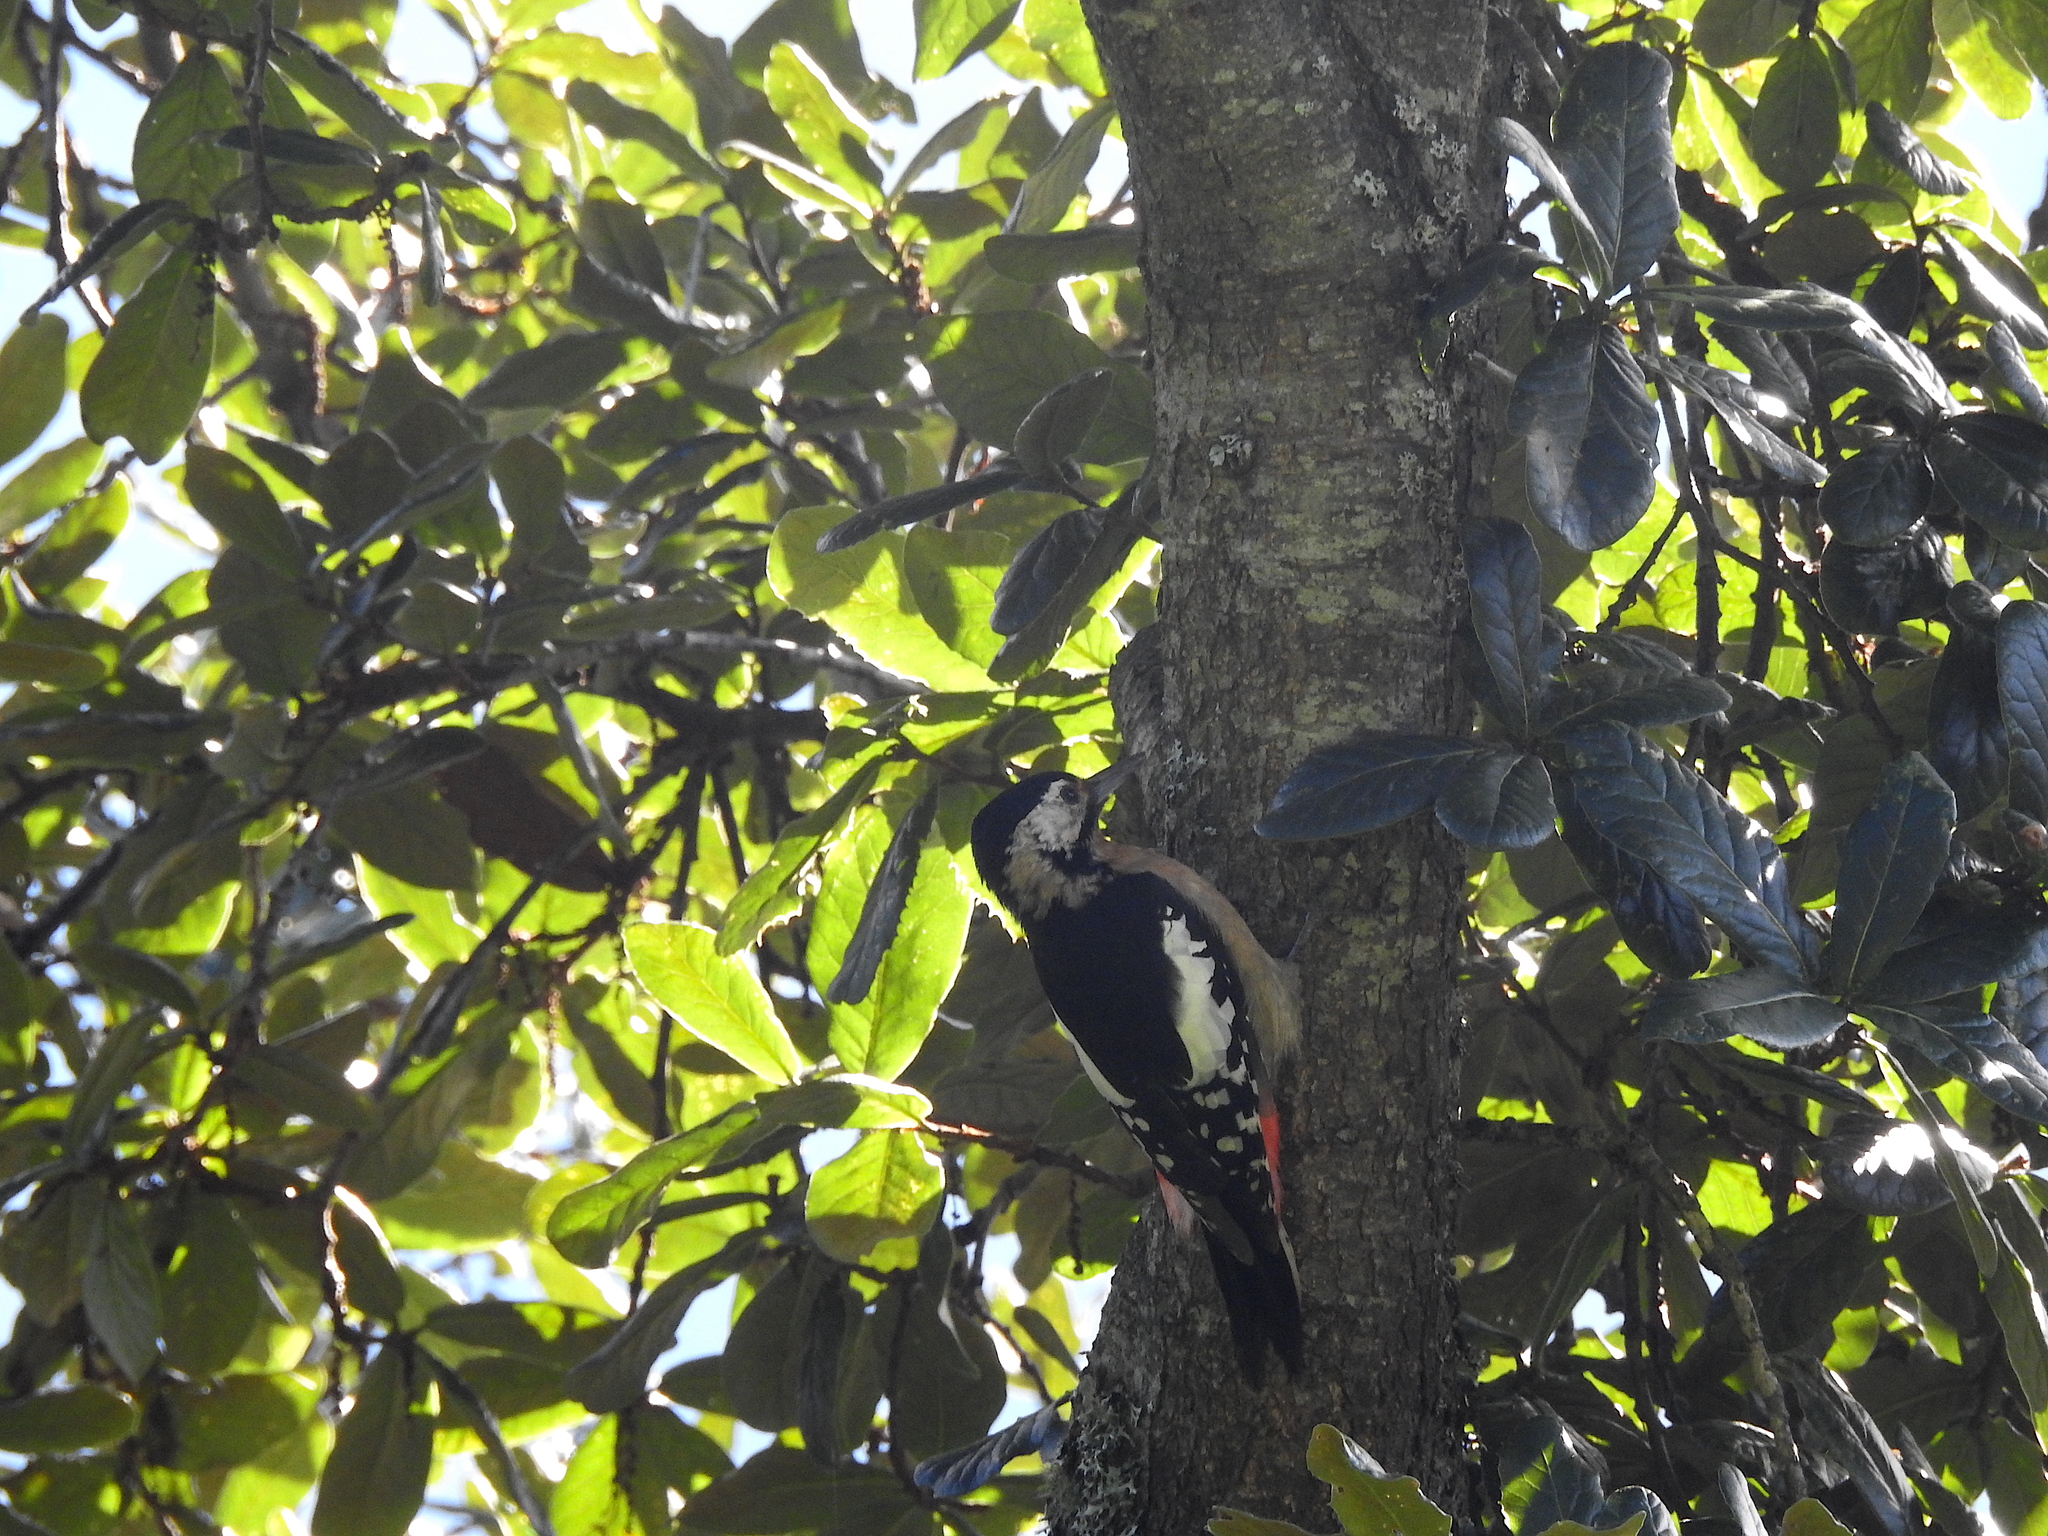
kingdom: Animalia
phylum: Chordata
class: Aves
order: Piciformes
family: Picidae
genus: Dendrocopos
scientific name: Dendrocopos himalayensis
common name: Himalayan woodpecker
